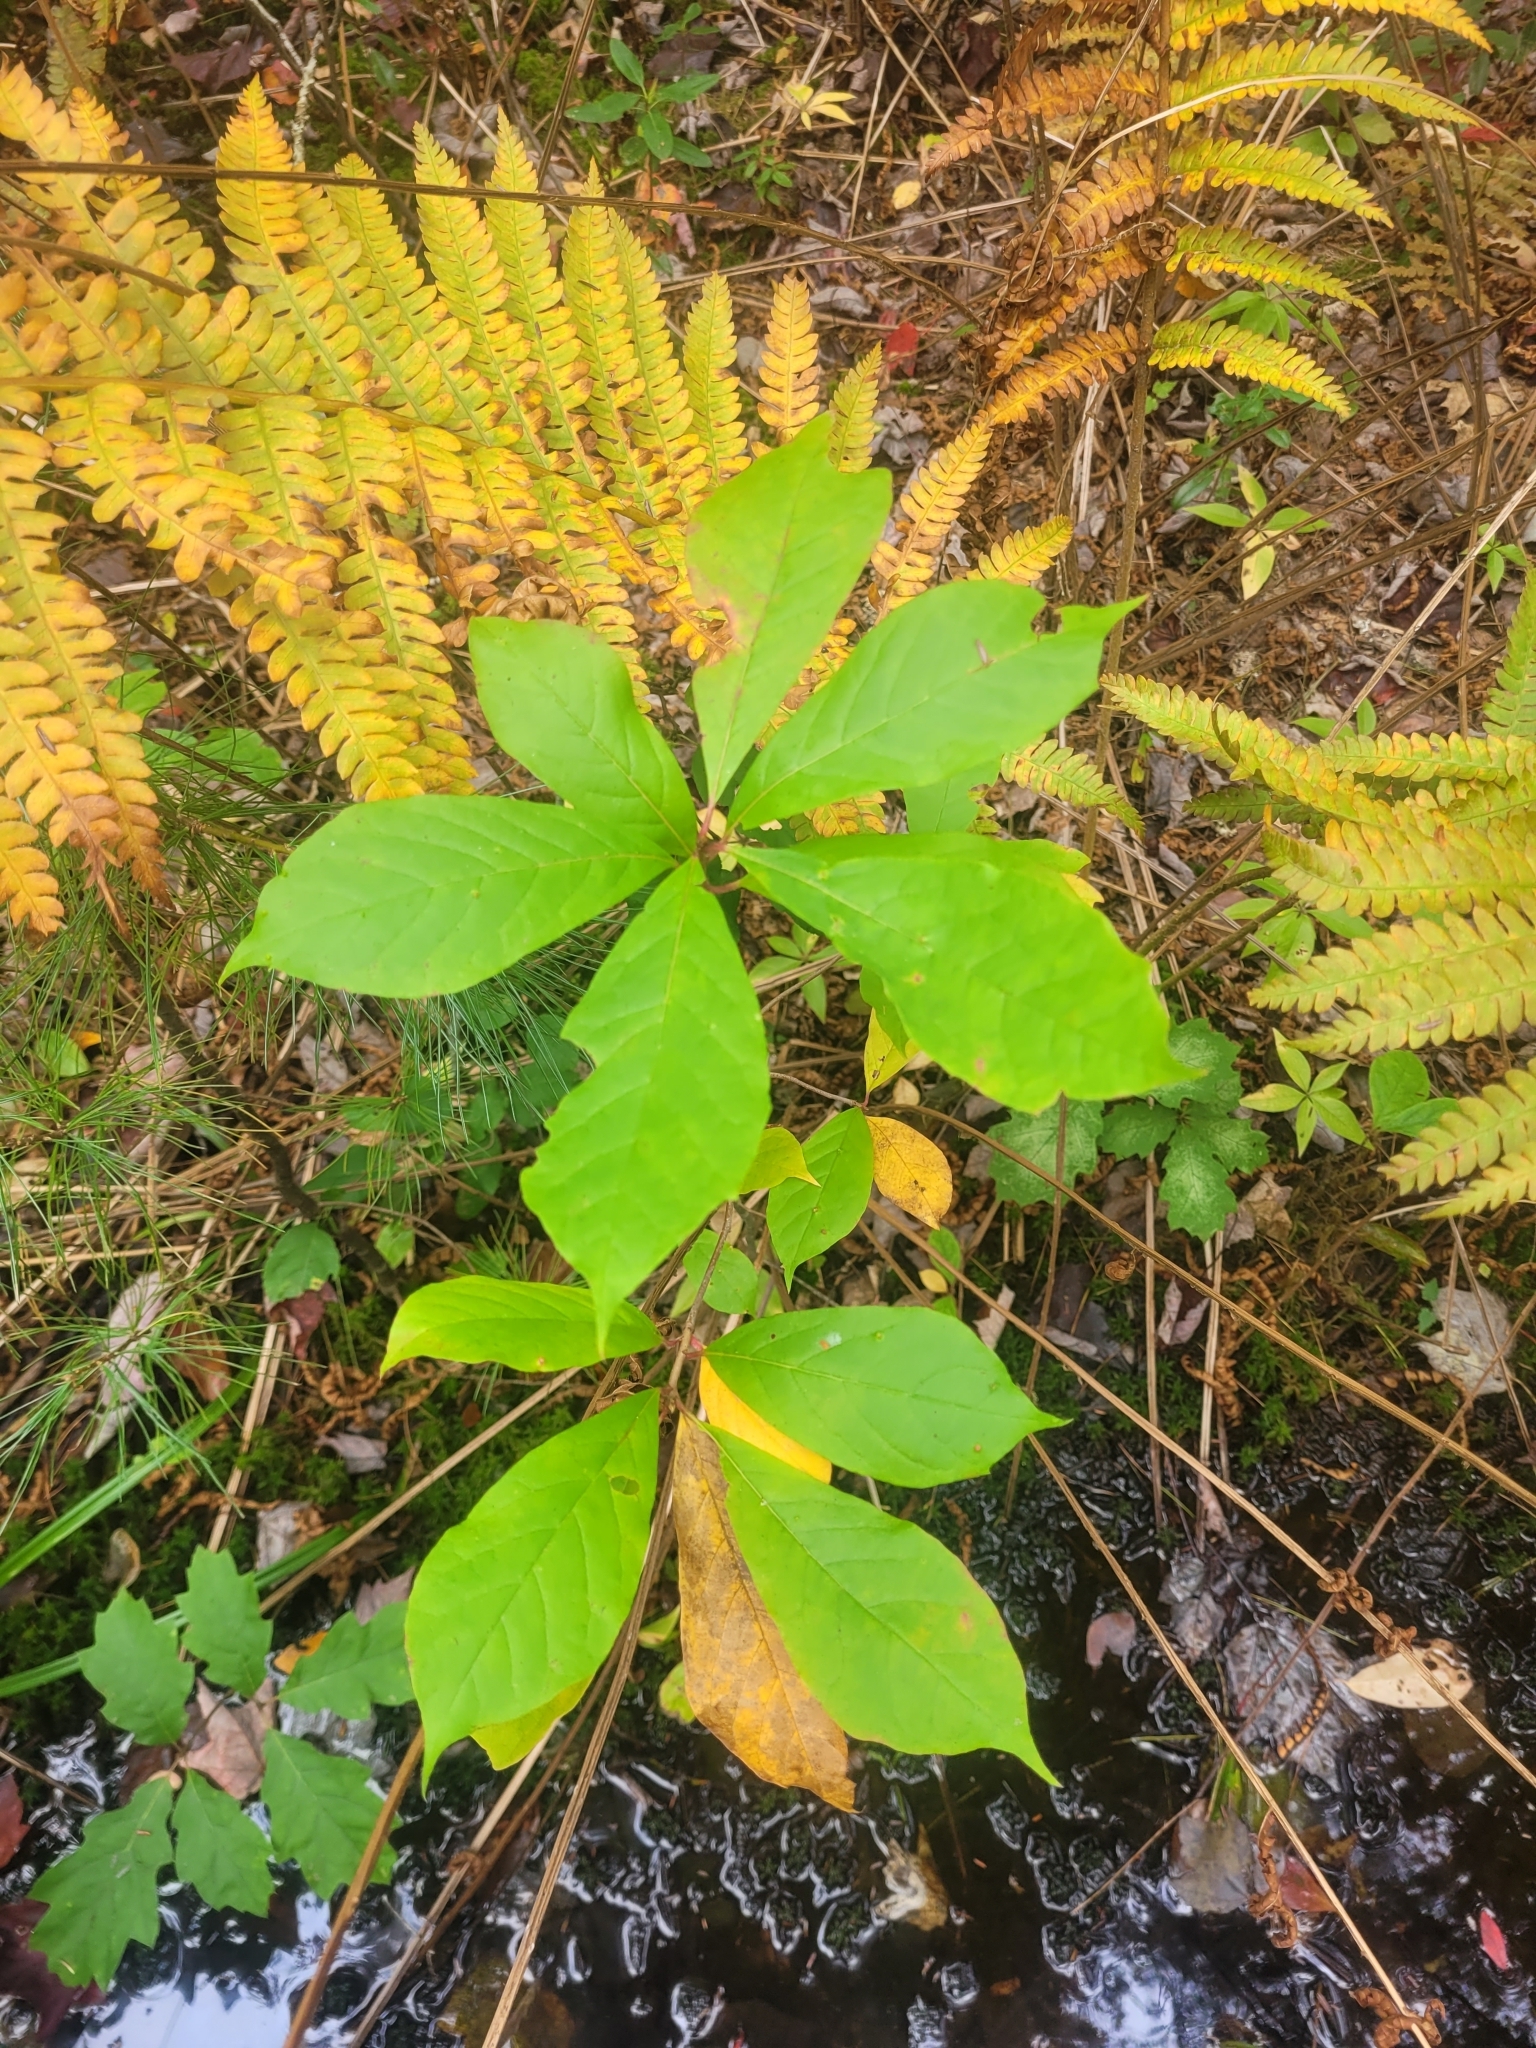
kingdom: Plantae
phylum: Tracheophyta
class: Magnoliopsida
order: Cornales
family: Nyssaceae
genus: Nyssa
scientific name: Nyssa sylvatica
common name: Black tupelo
